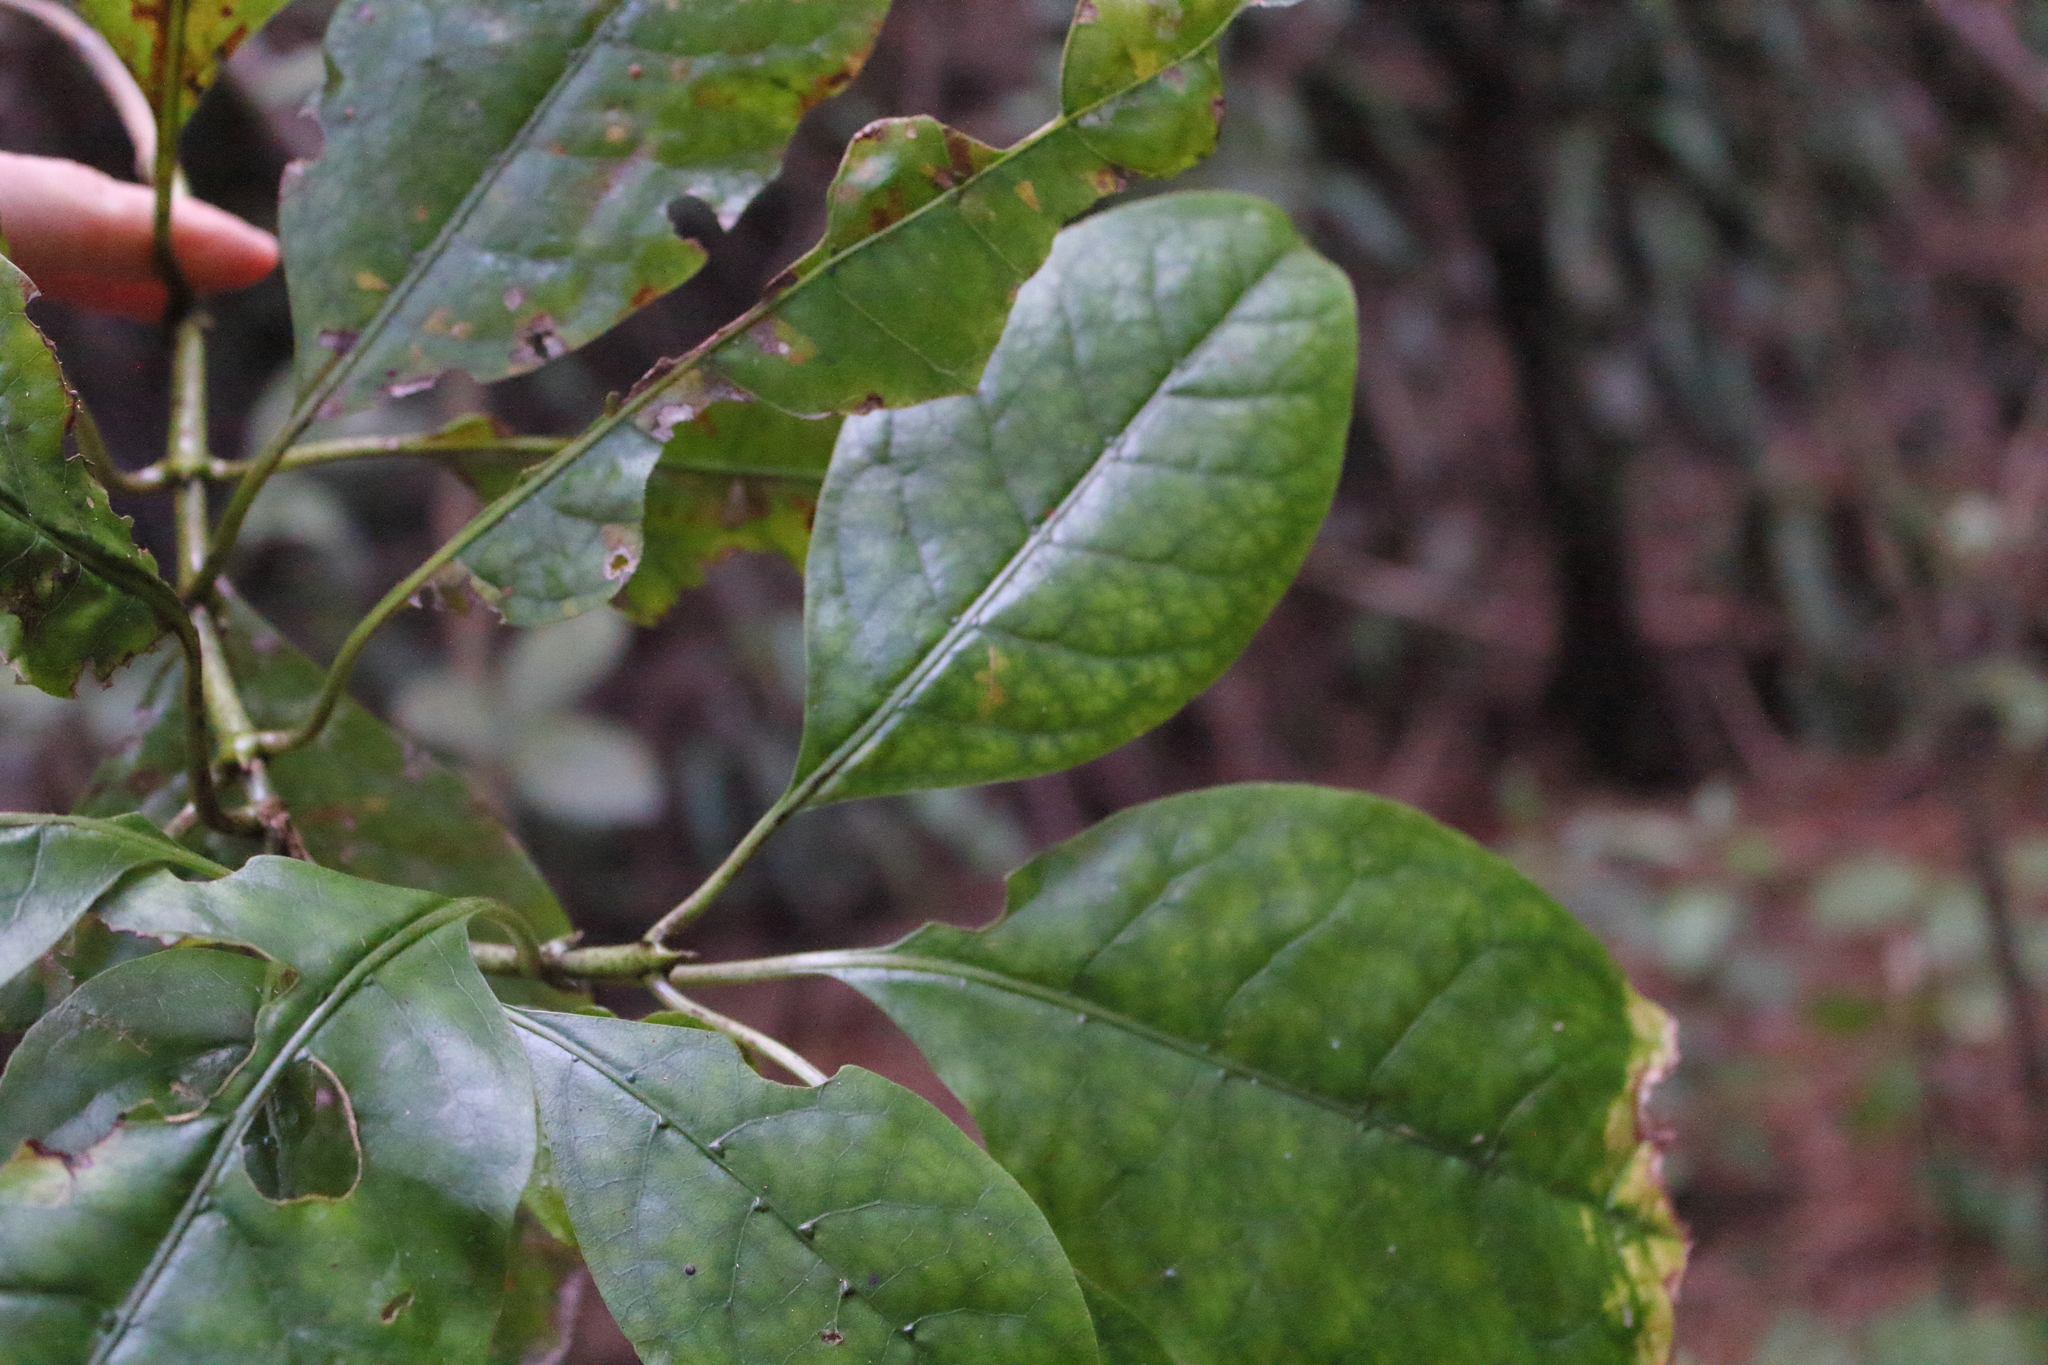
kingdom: Plantae
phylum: Tracheophyta
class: Magnoliopsida
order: Gentianales
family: Rubiaceae
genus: Coprosma
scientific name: Coprosma autumnalis
